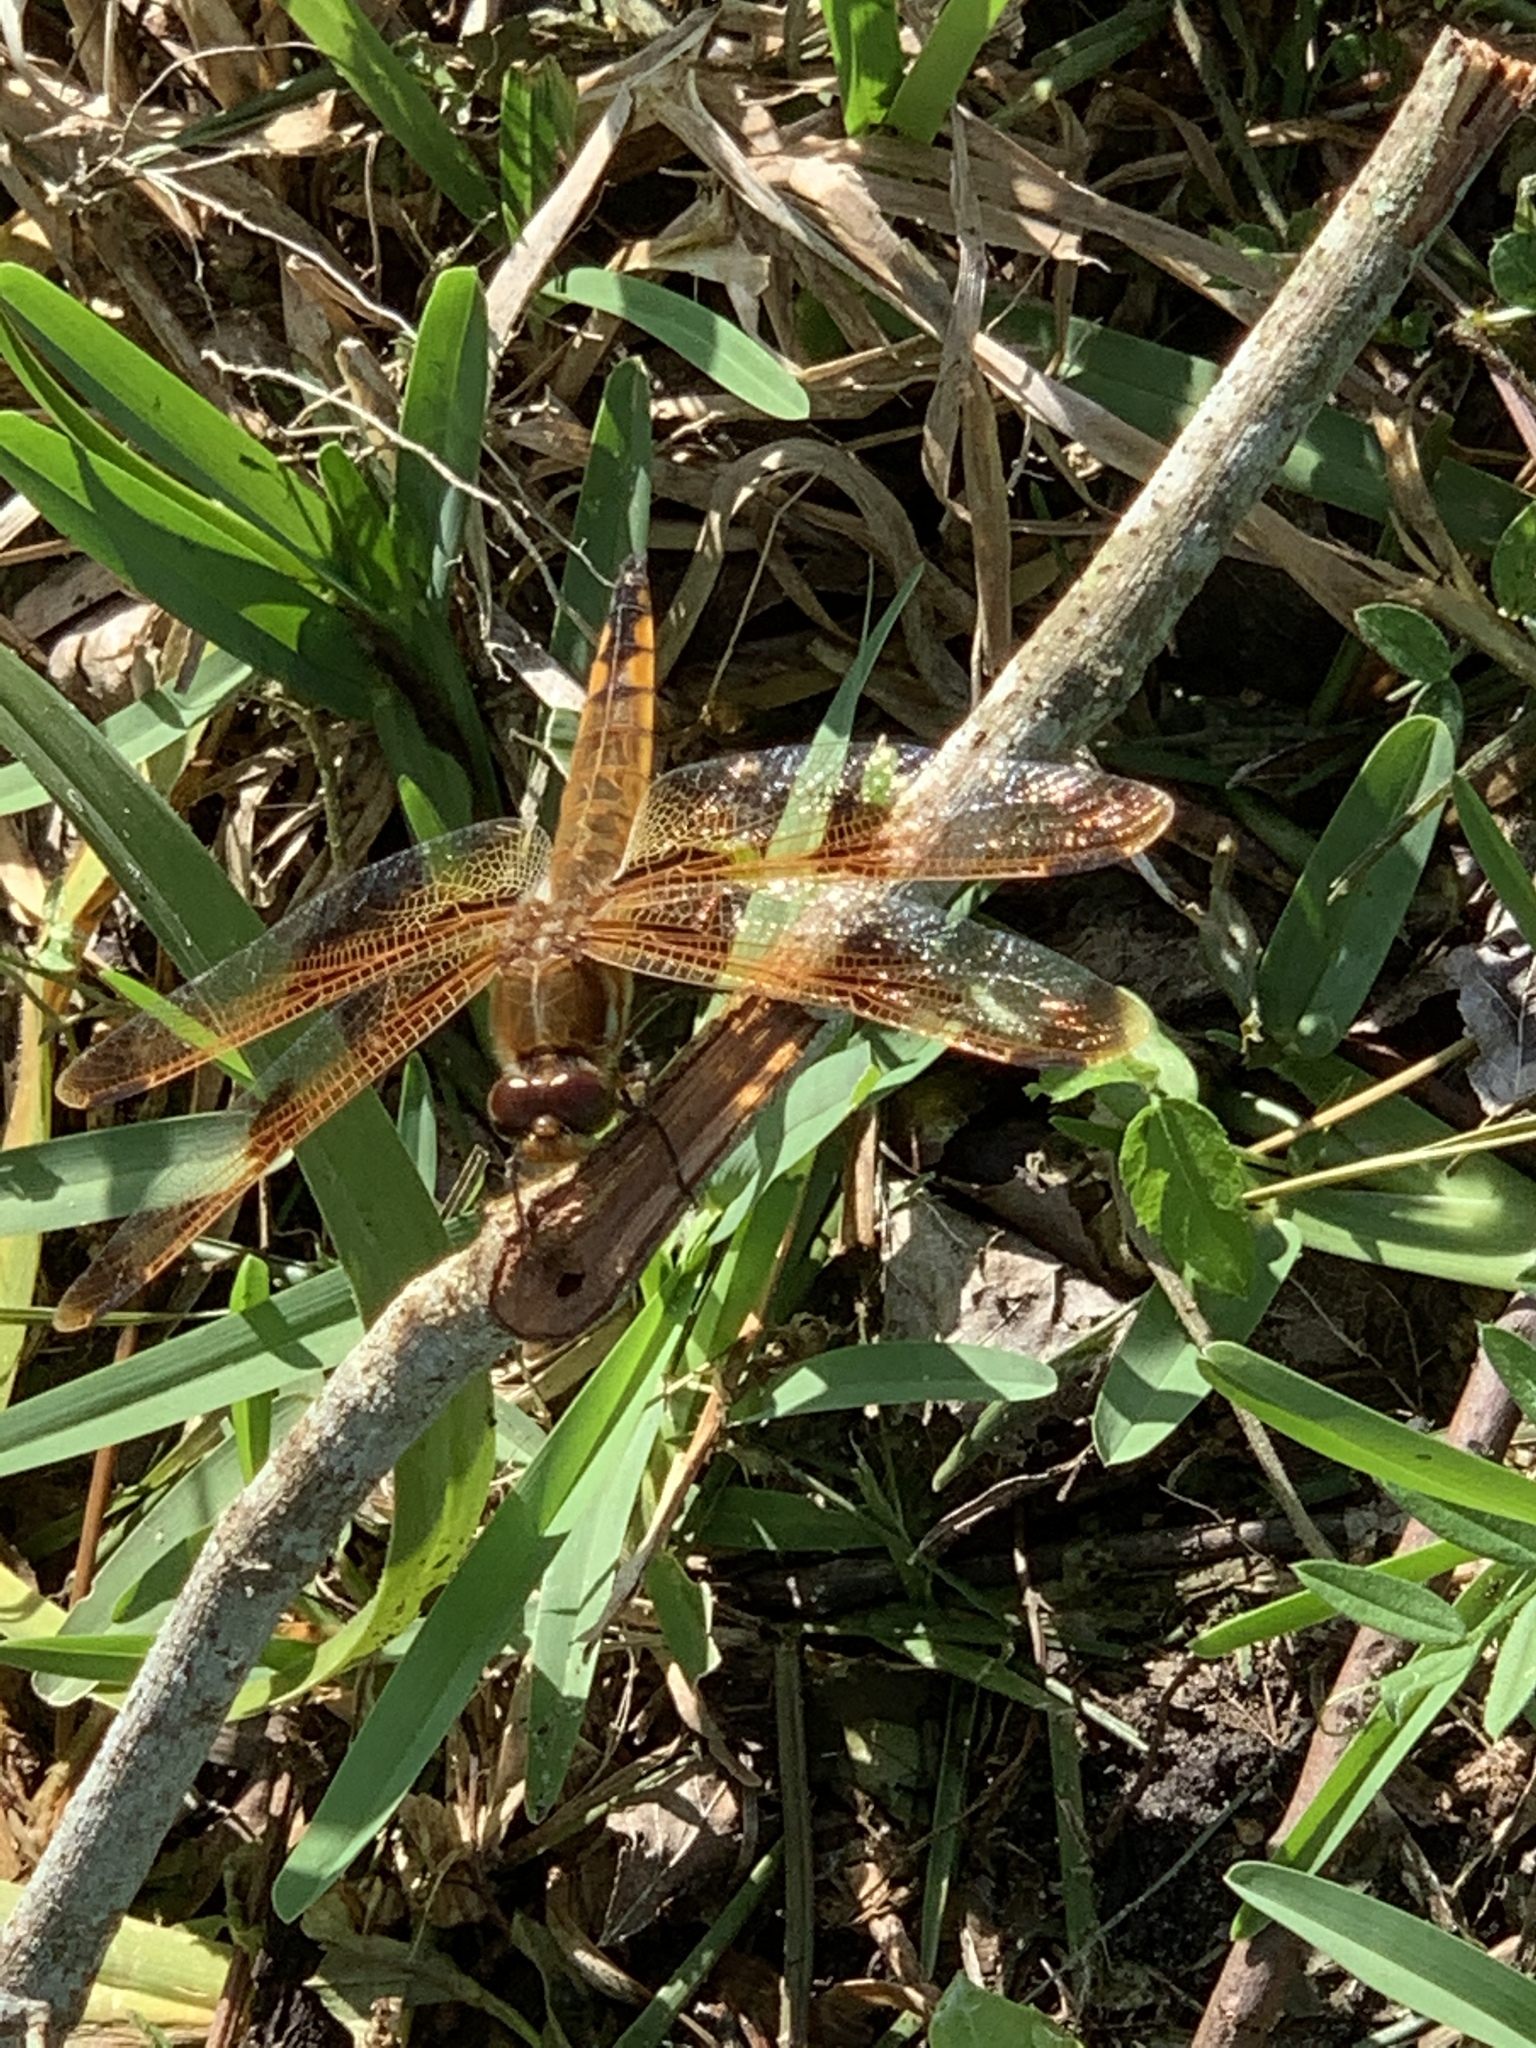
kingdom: Animalia
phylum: Arthropoda
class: Insecta
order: Odonata
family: Libellulidae
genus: Libellula
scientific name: Libellula semifasciata
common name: Painted skimmer
